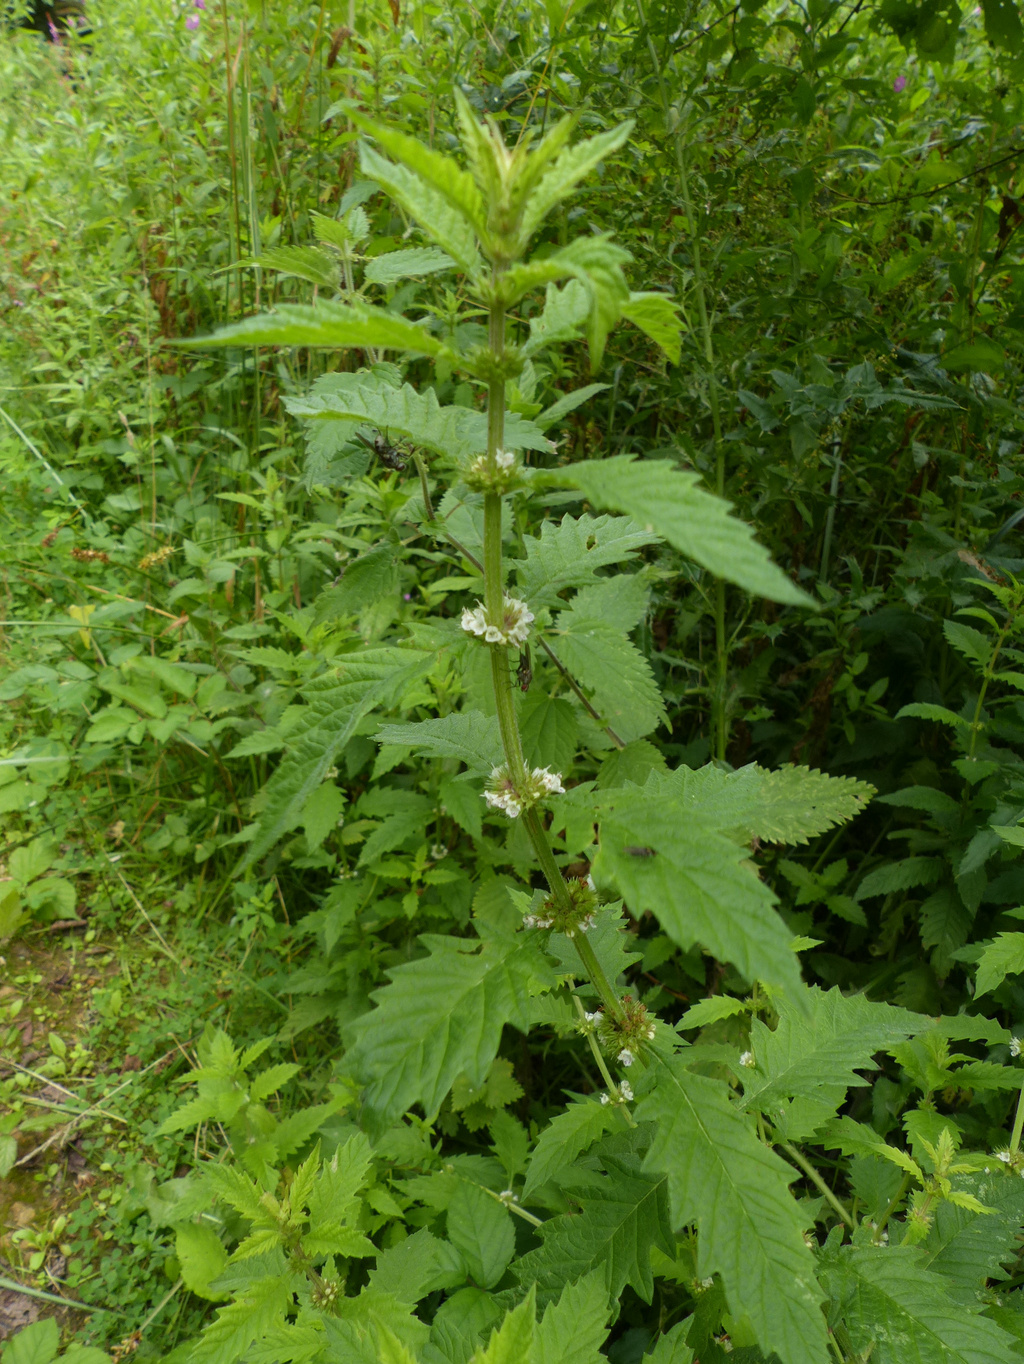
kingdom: Plantae
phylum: Tracheophyta
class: Magnoliopsida
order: Lamiales
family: Lamiaceae
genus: Lycopus
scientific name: Lycopus europaeus
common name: European bugleweed
